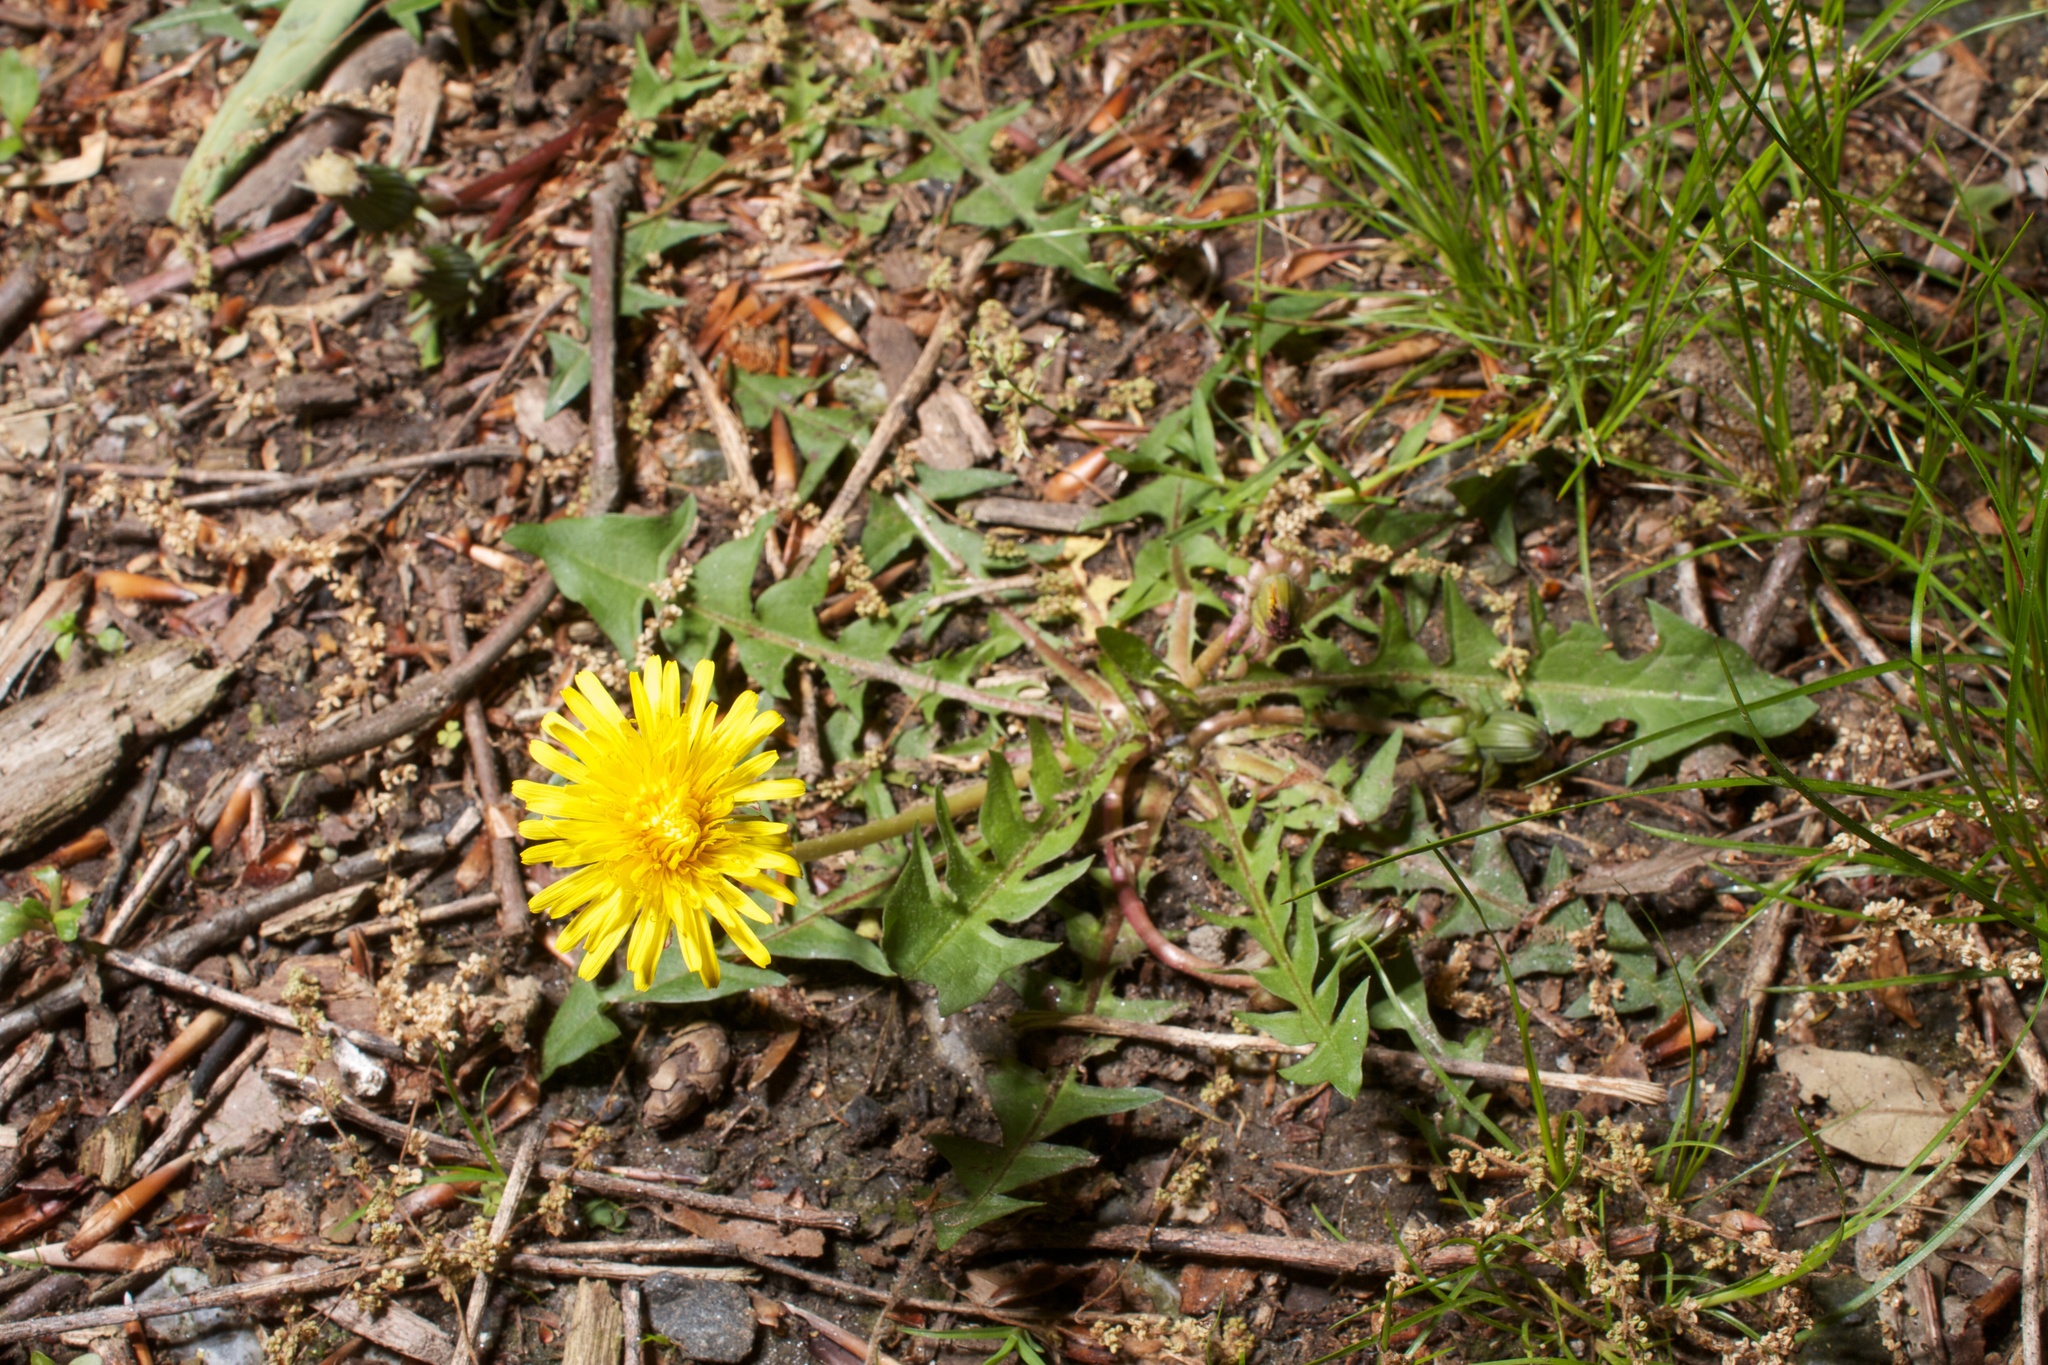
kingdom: Plantae
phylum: Tracheophyta
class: Magnoliopsida
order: Asterales
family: Asteraceae
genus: Taraxacum
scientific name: Taraxacum
